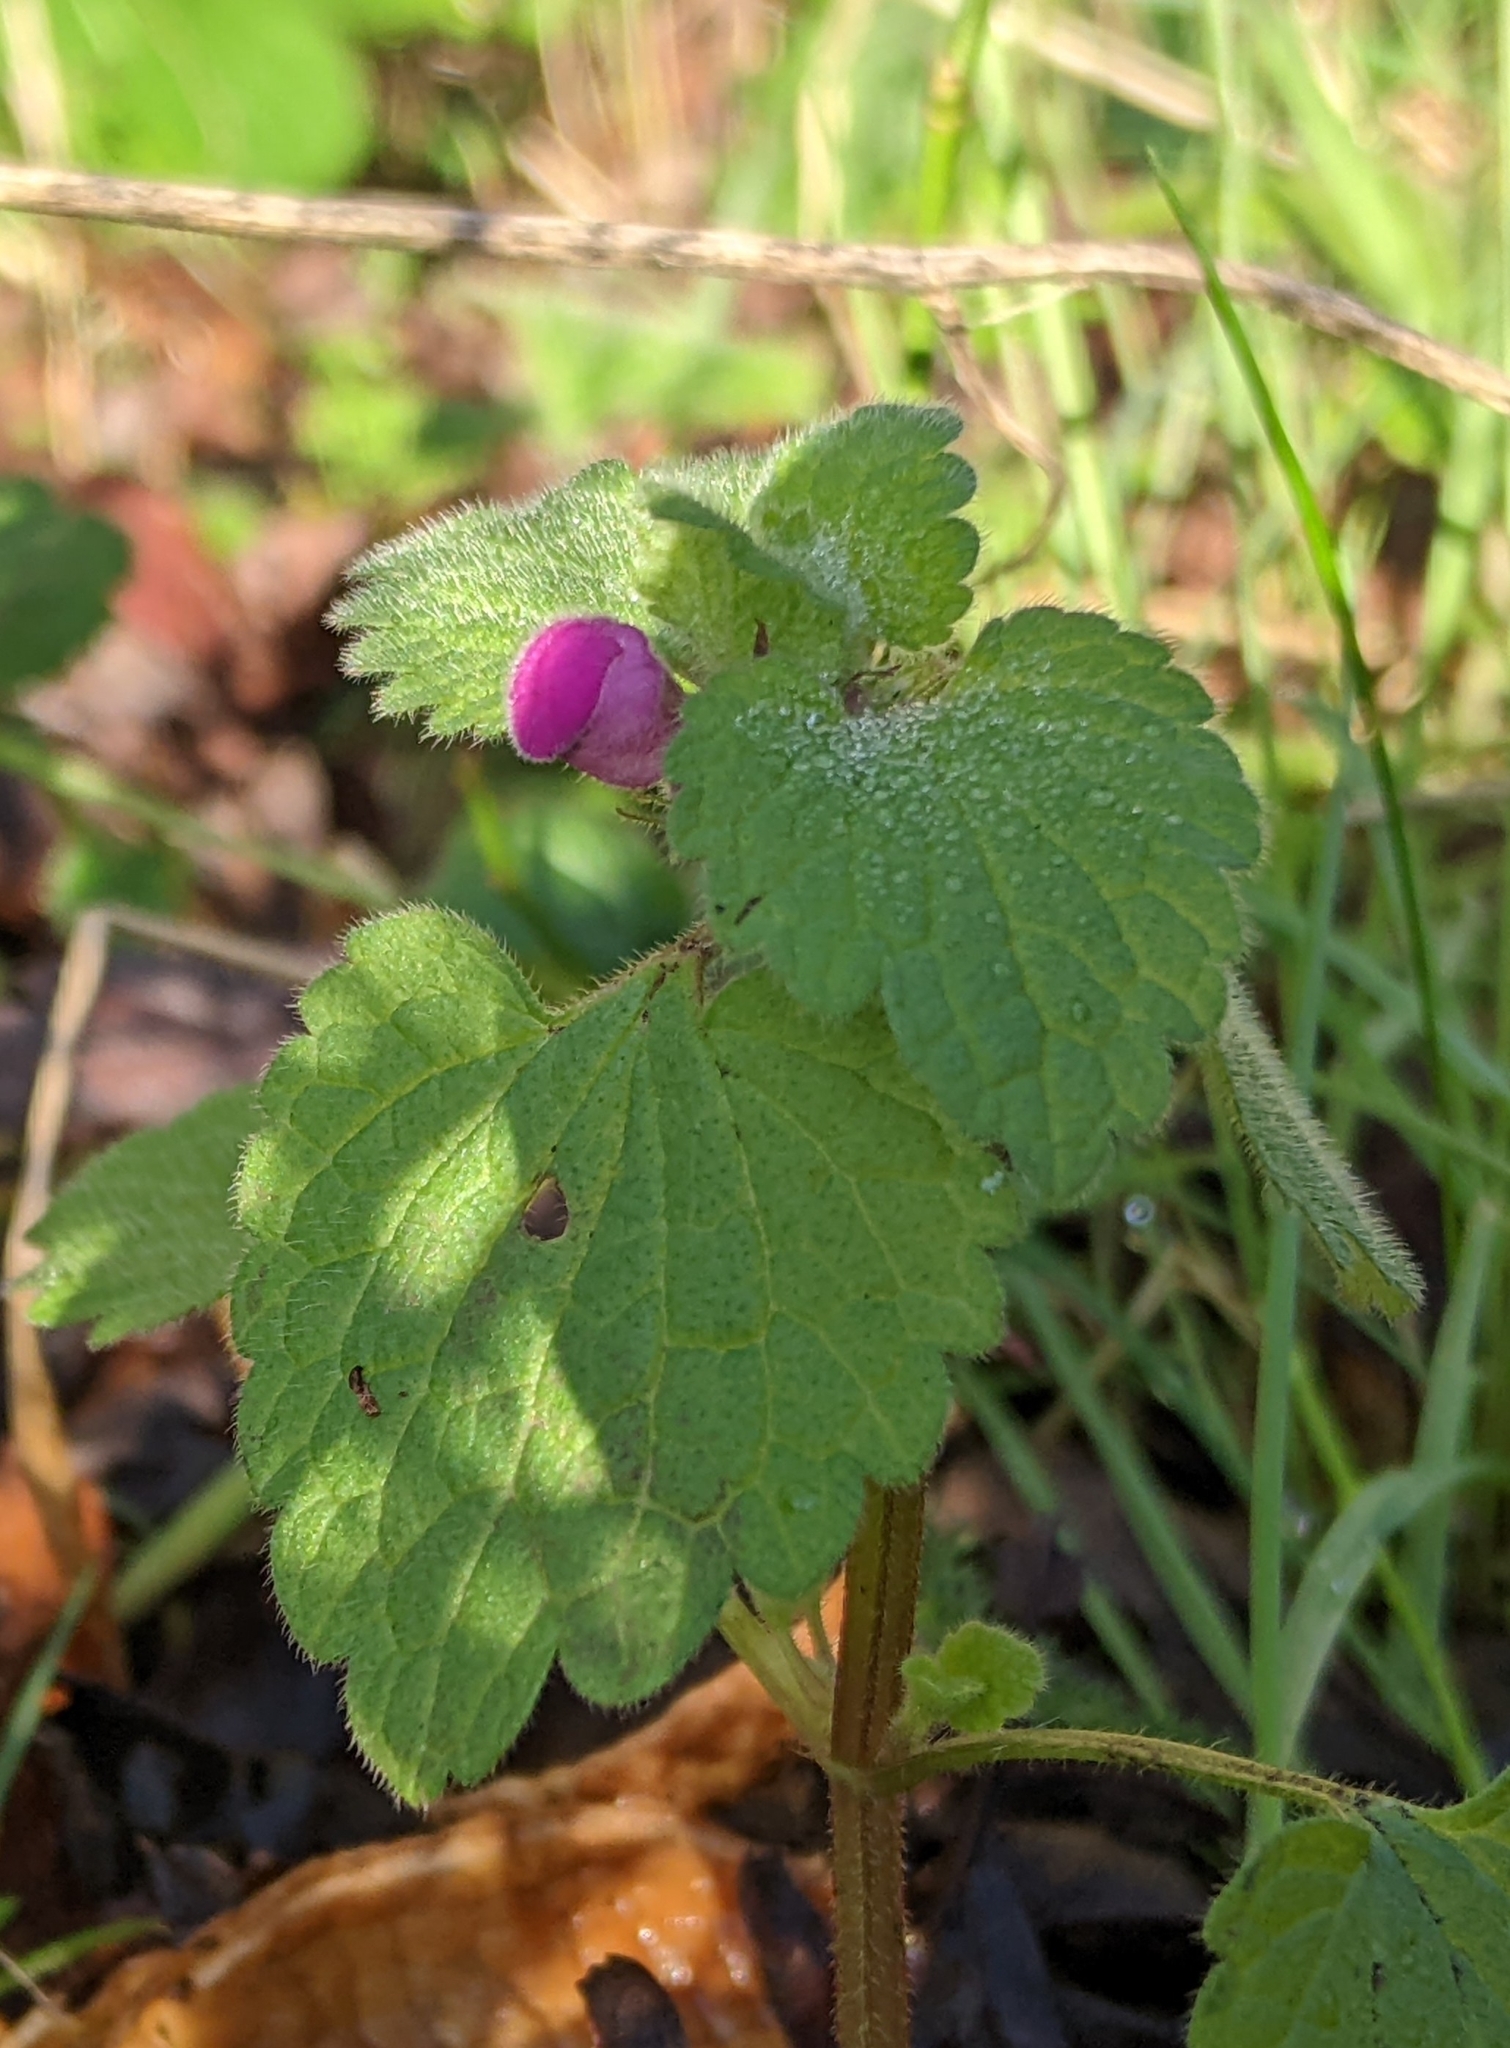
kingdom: Plantae
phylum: Tracheophyta
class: Magnoliopsida
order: Lamiales
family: Lamiaceae
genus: Lamium
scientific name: Lamium purpureum
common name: Red dead-nettle
